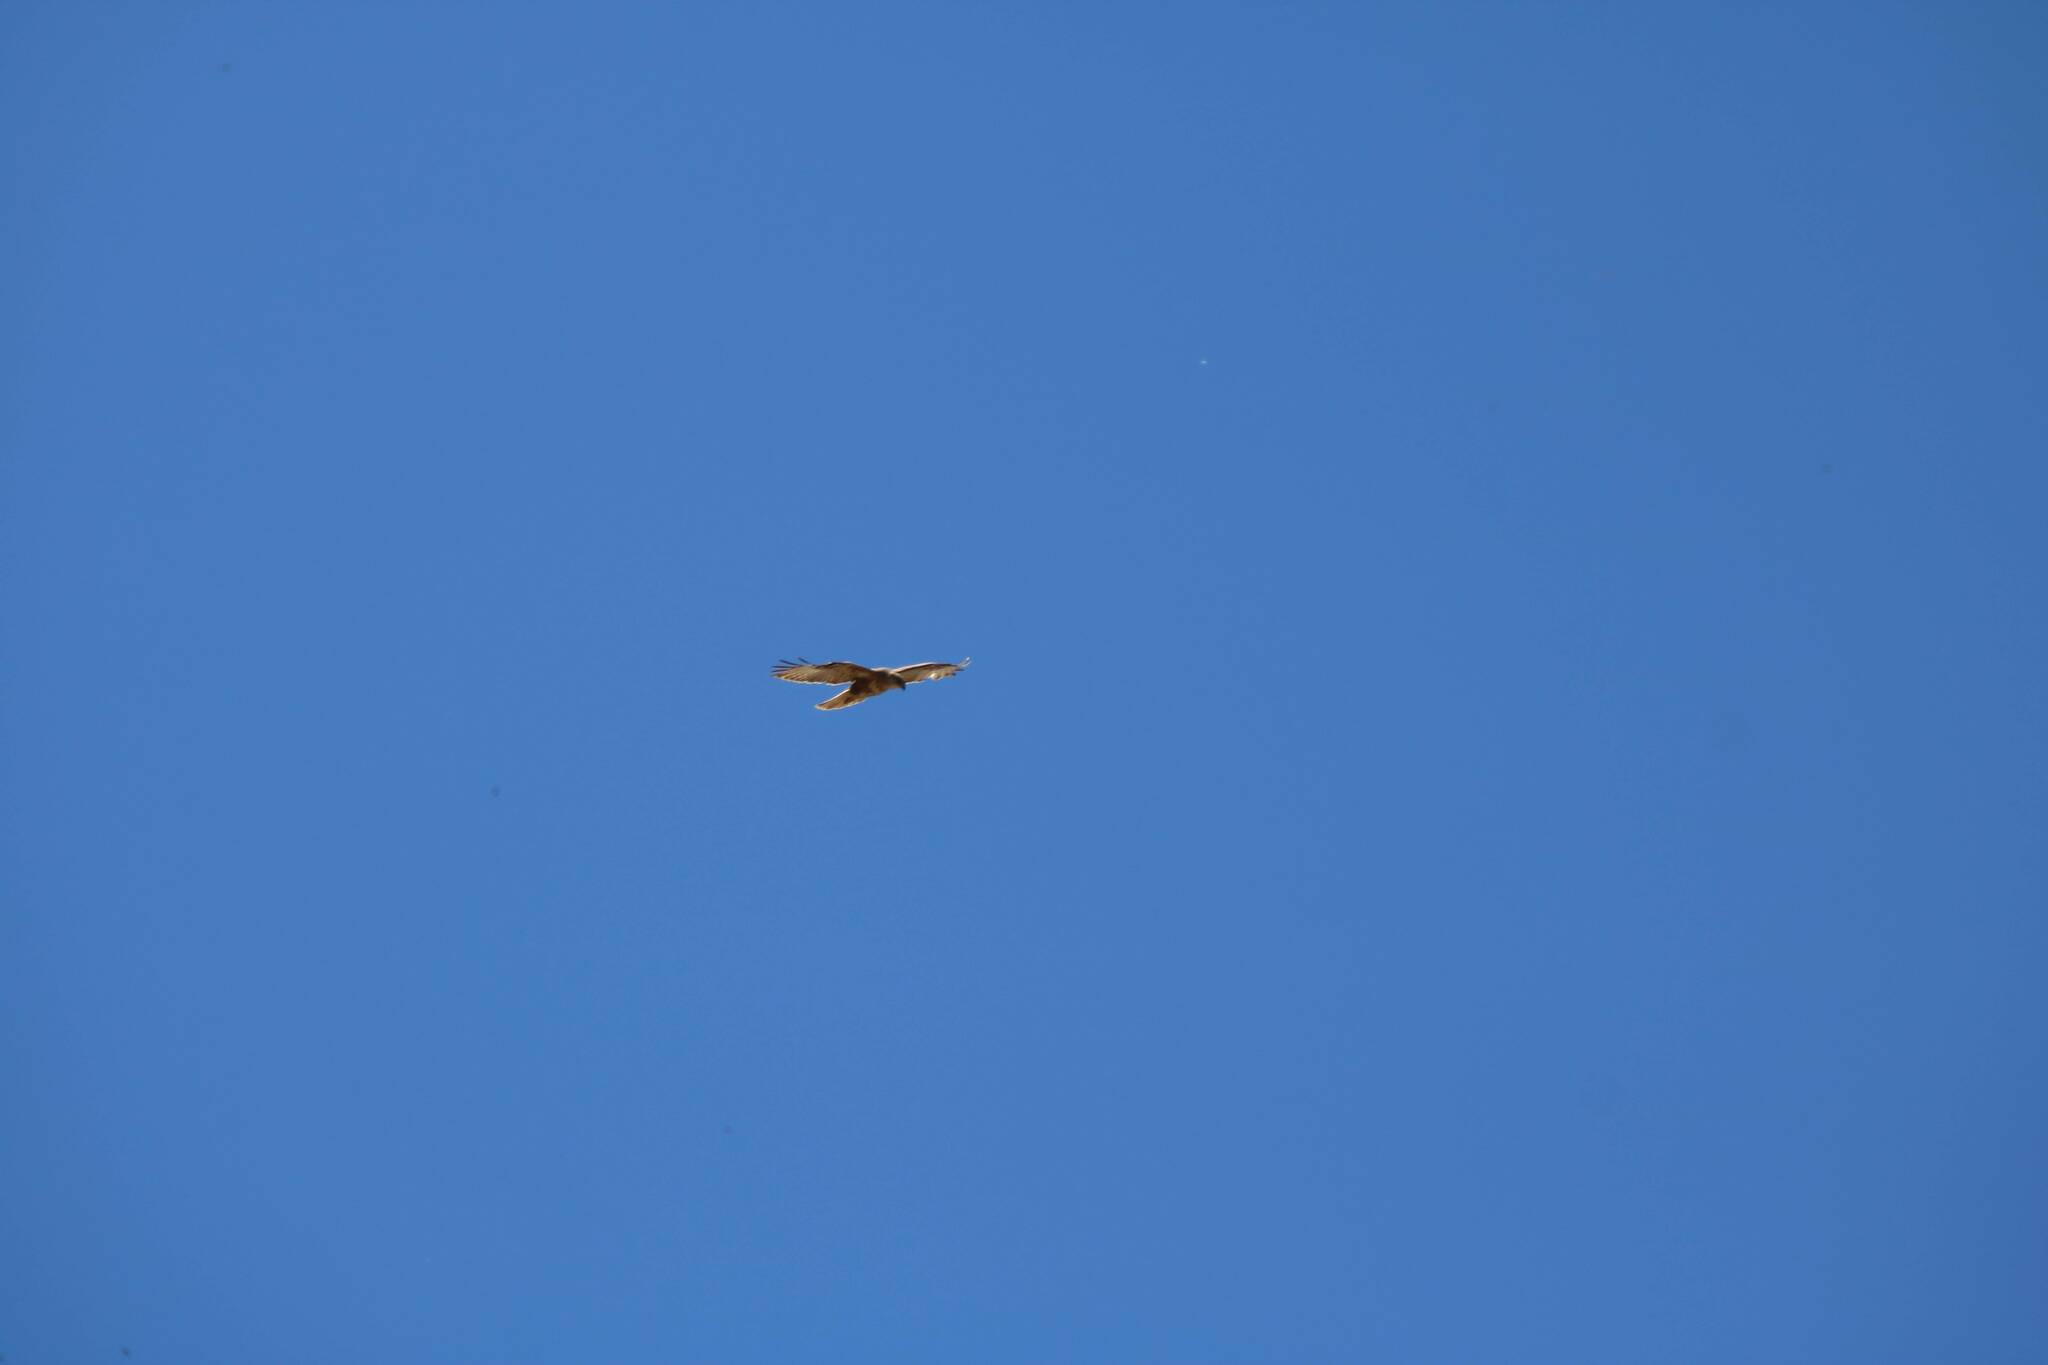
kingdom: Animalia
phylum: Chordata
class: Aves
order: Accipitriformes
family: Accipitridae
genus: Buteo
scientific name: Buteo buteo
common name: Common buzzard
